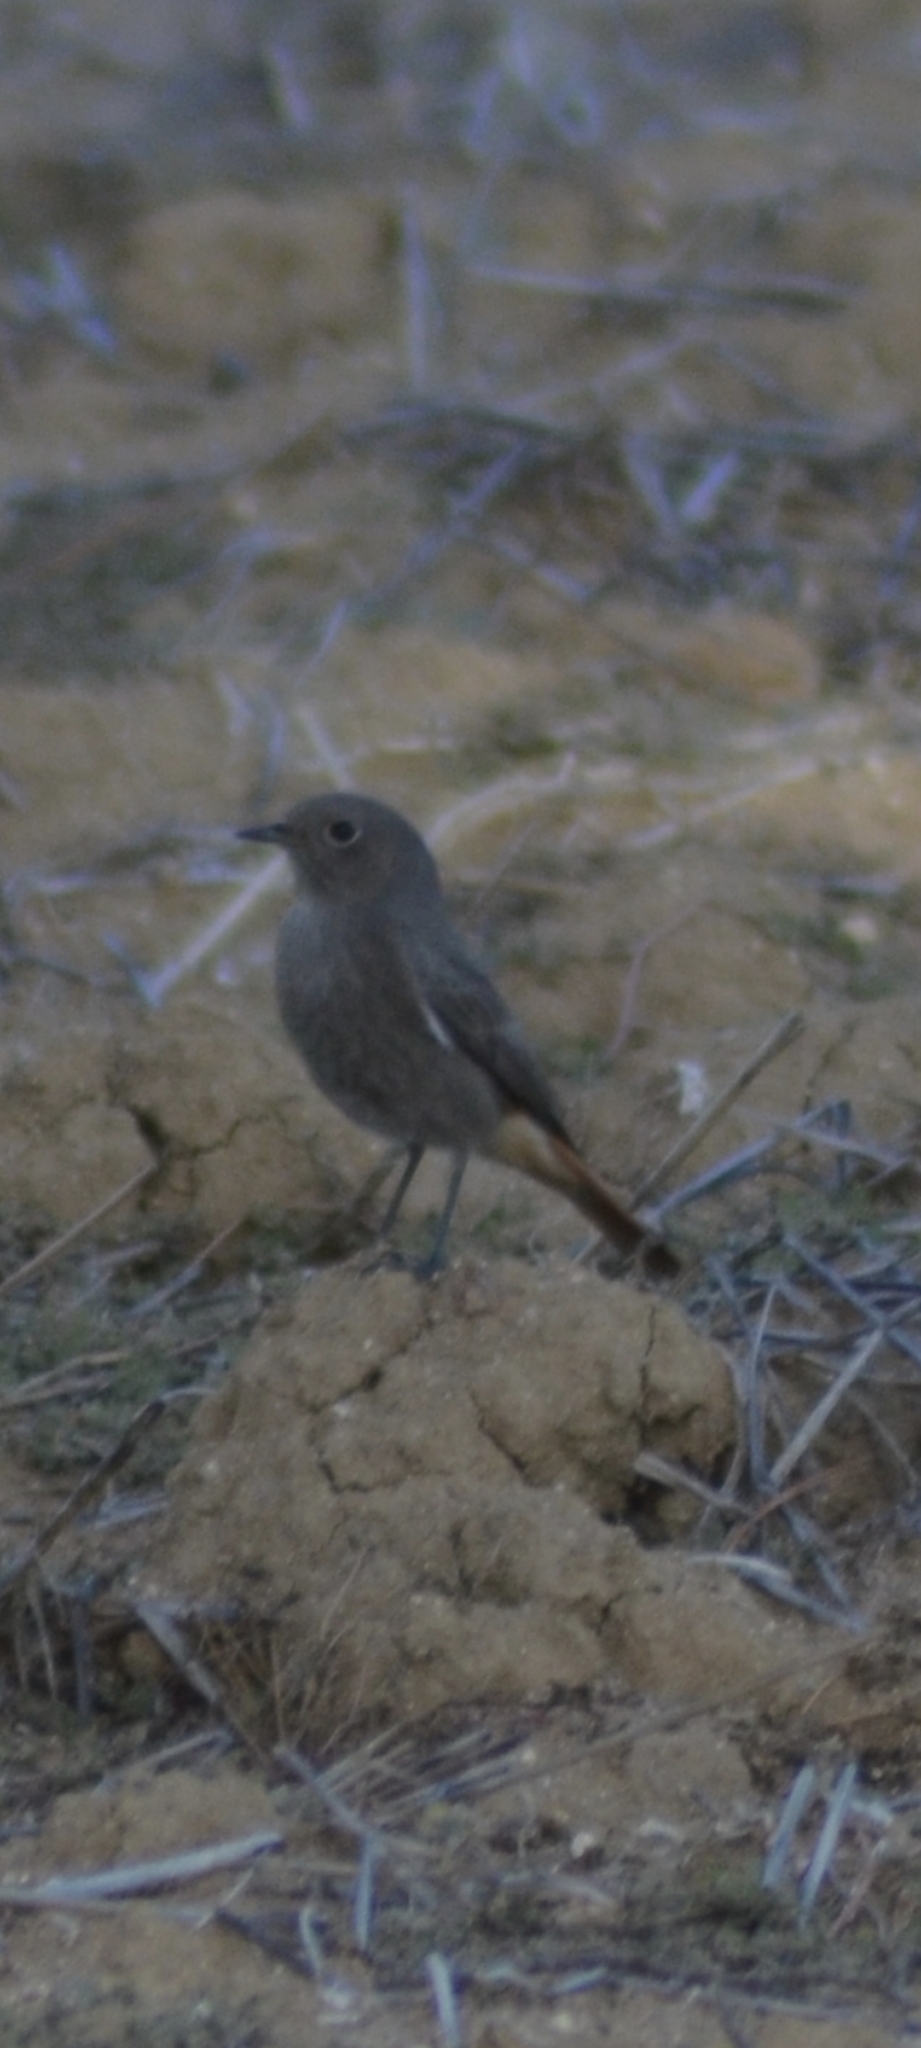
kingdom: Animalia
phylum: Chordata
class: Aves
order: Passeriformes
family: Muscicapidae
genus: Phoenicurus
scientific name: Phoenicurus ochruros
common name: Black redstart
